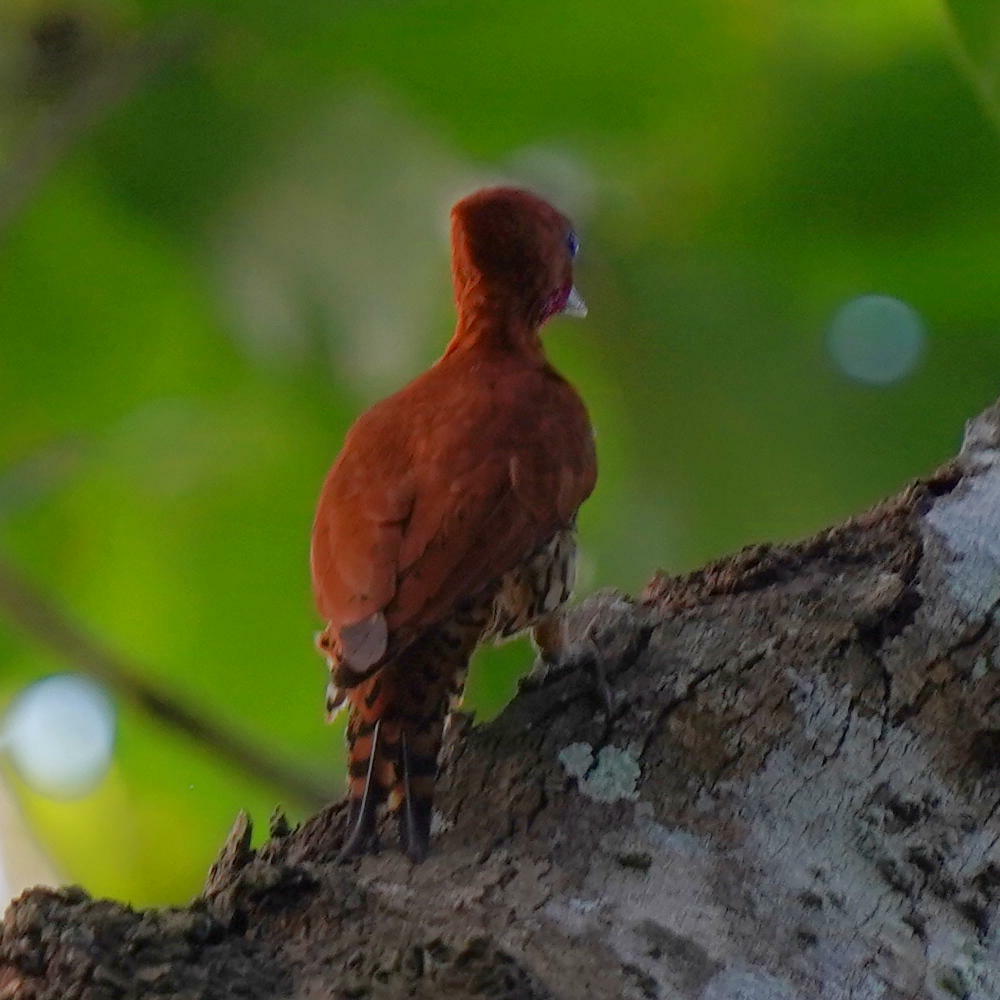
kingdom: Animalia
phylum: Chordata
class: Aves
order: Piciformes
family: Picidae
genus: Celeus
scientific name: Celeus loricatus
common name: Cinnamon woodpecker
